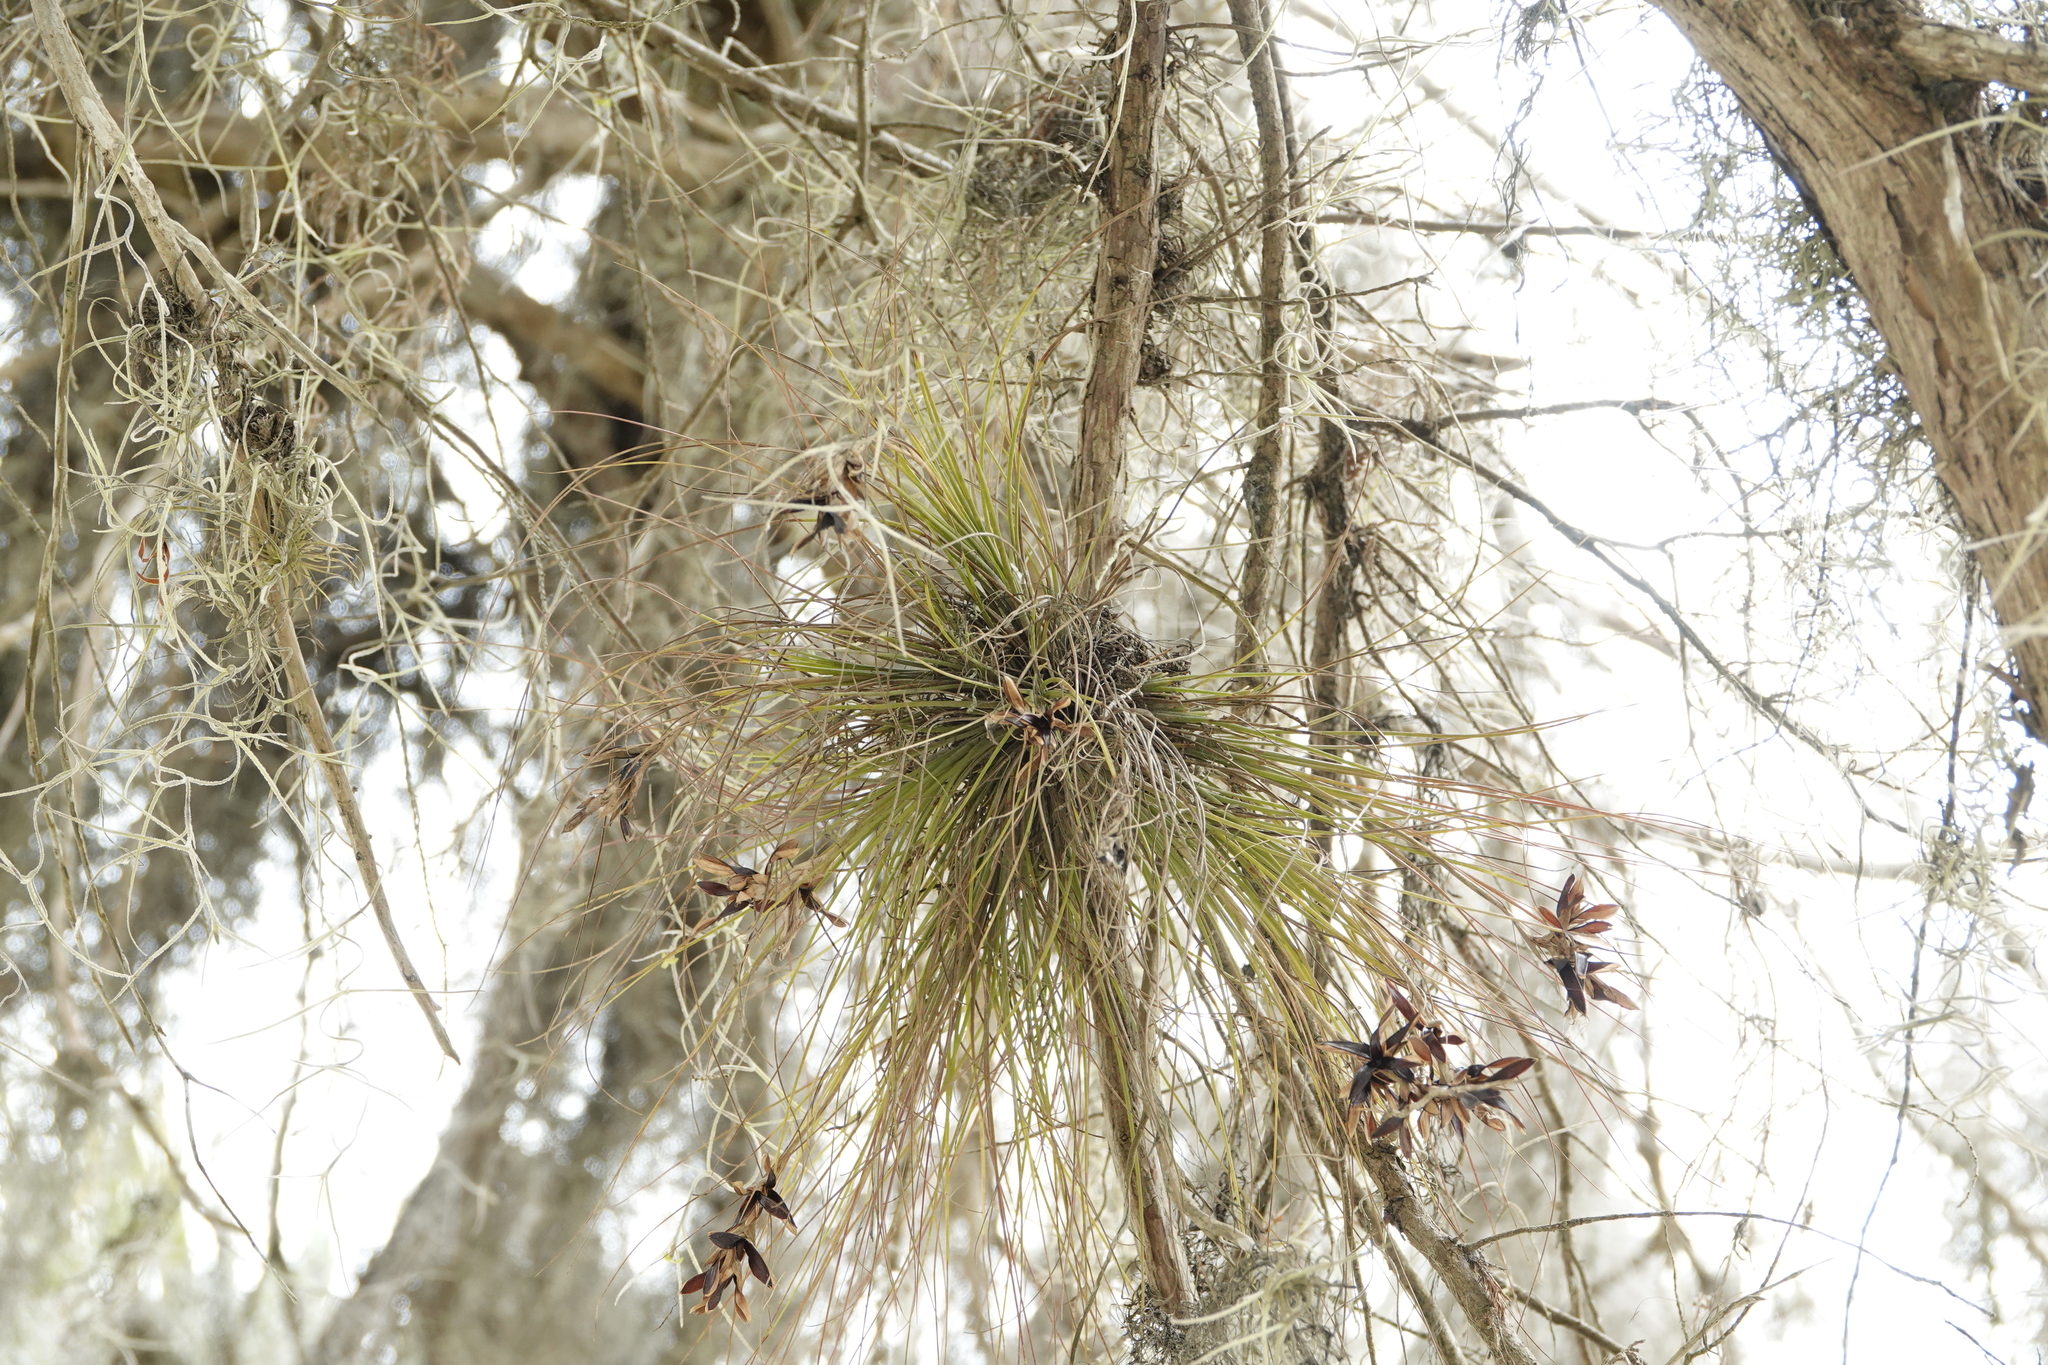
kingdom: Plantae
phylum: Tracheophyta
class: Liliopsida
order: Poales
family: Bromeliaceae
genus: Tillandsia
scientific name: Tillandsia setacea
